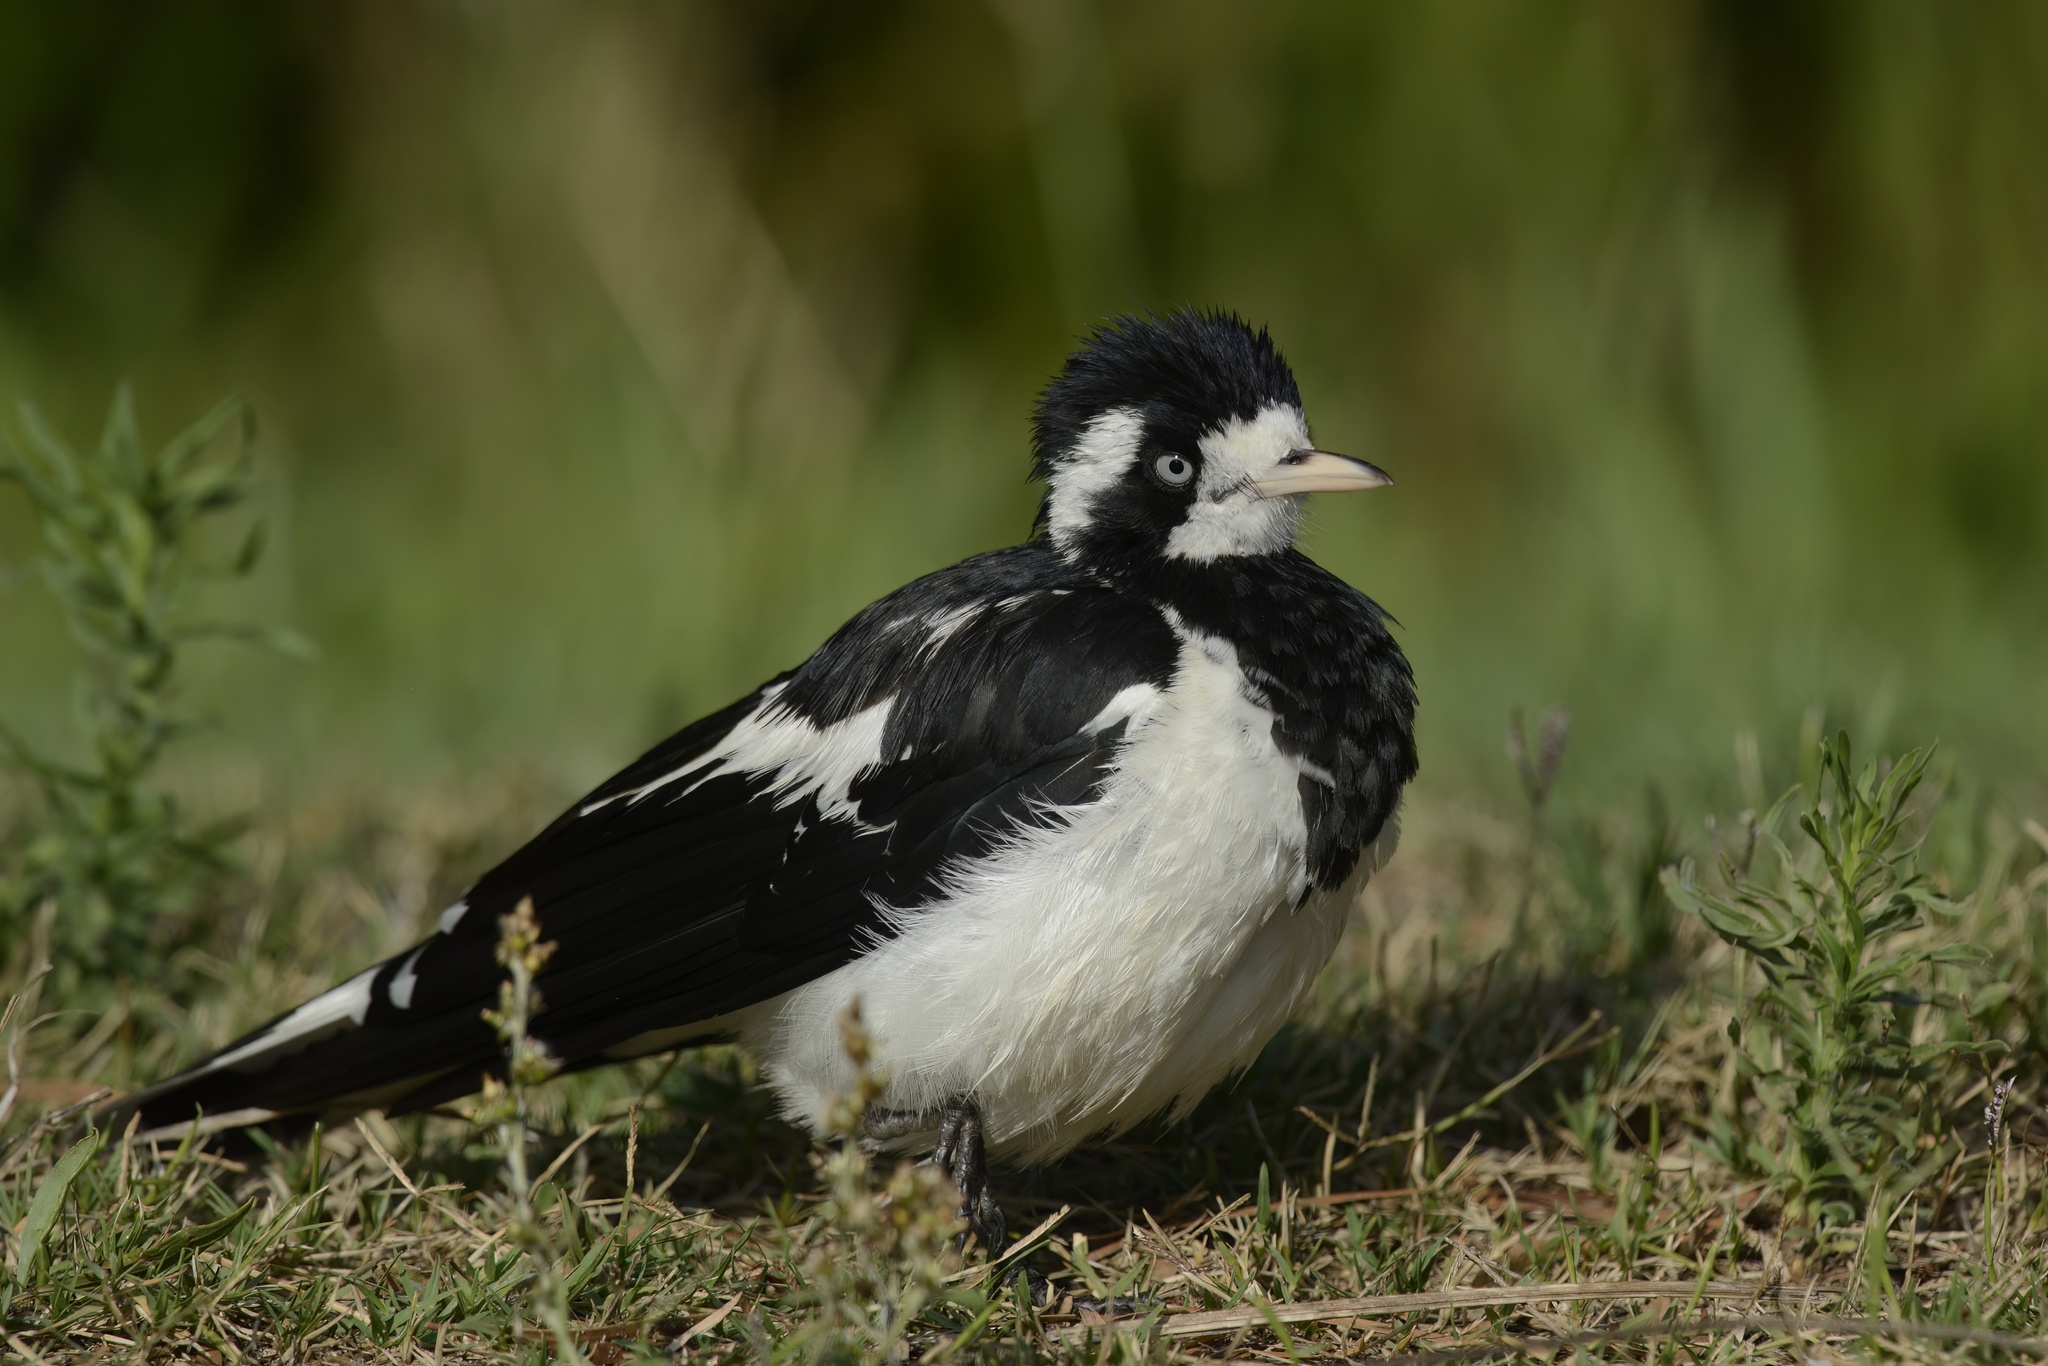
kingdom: Animalia
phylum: Chordata
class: Aves
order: Passeriformes
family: Monarchidae
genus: Grallina
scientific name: Grallina cyanoleuca
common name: Magpie-lark
